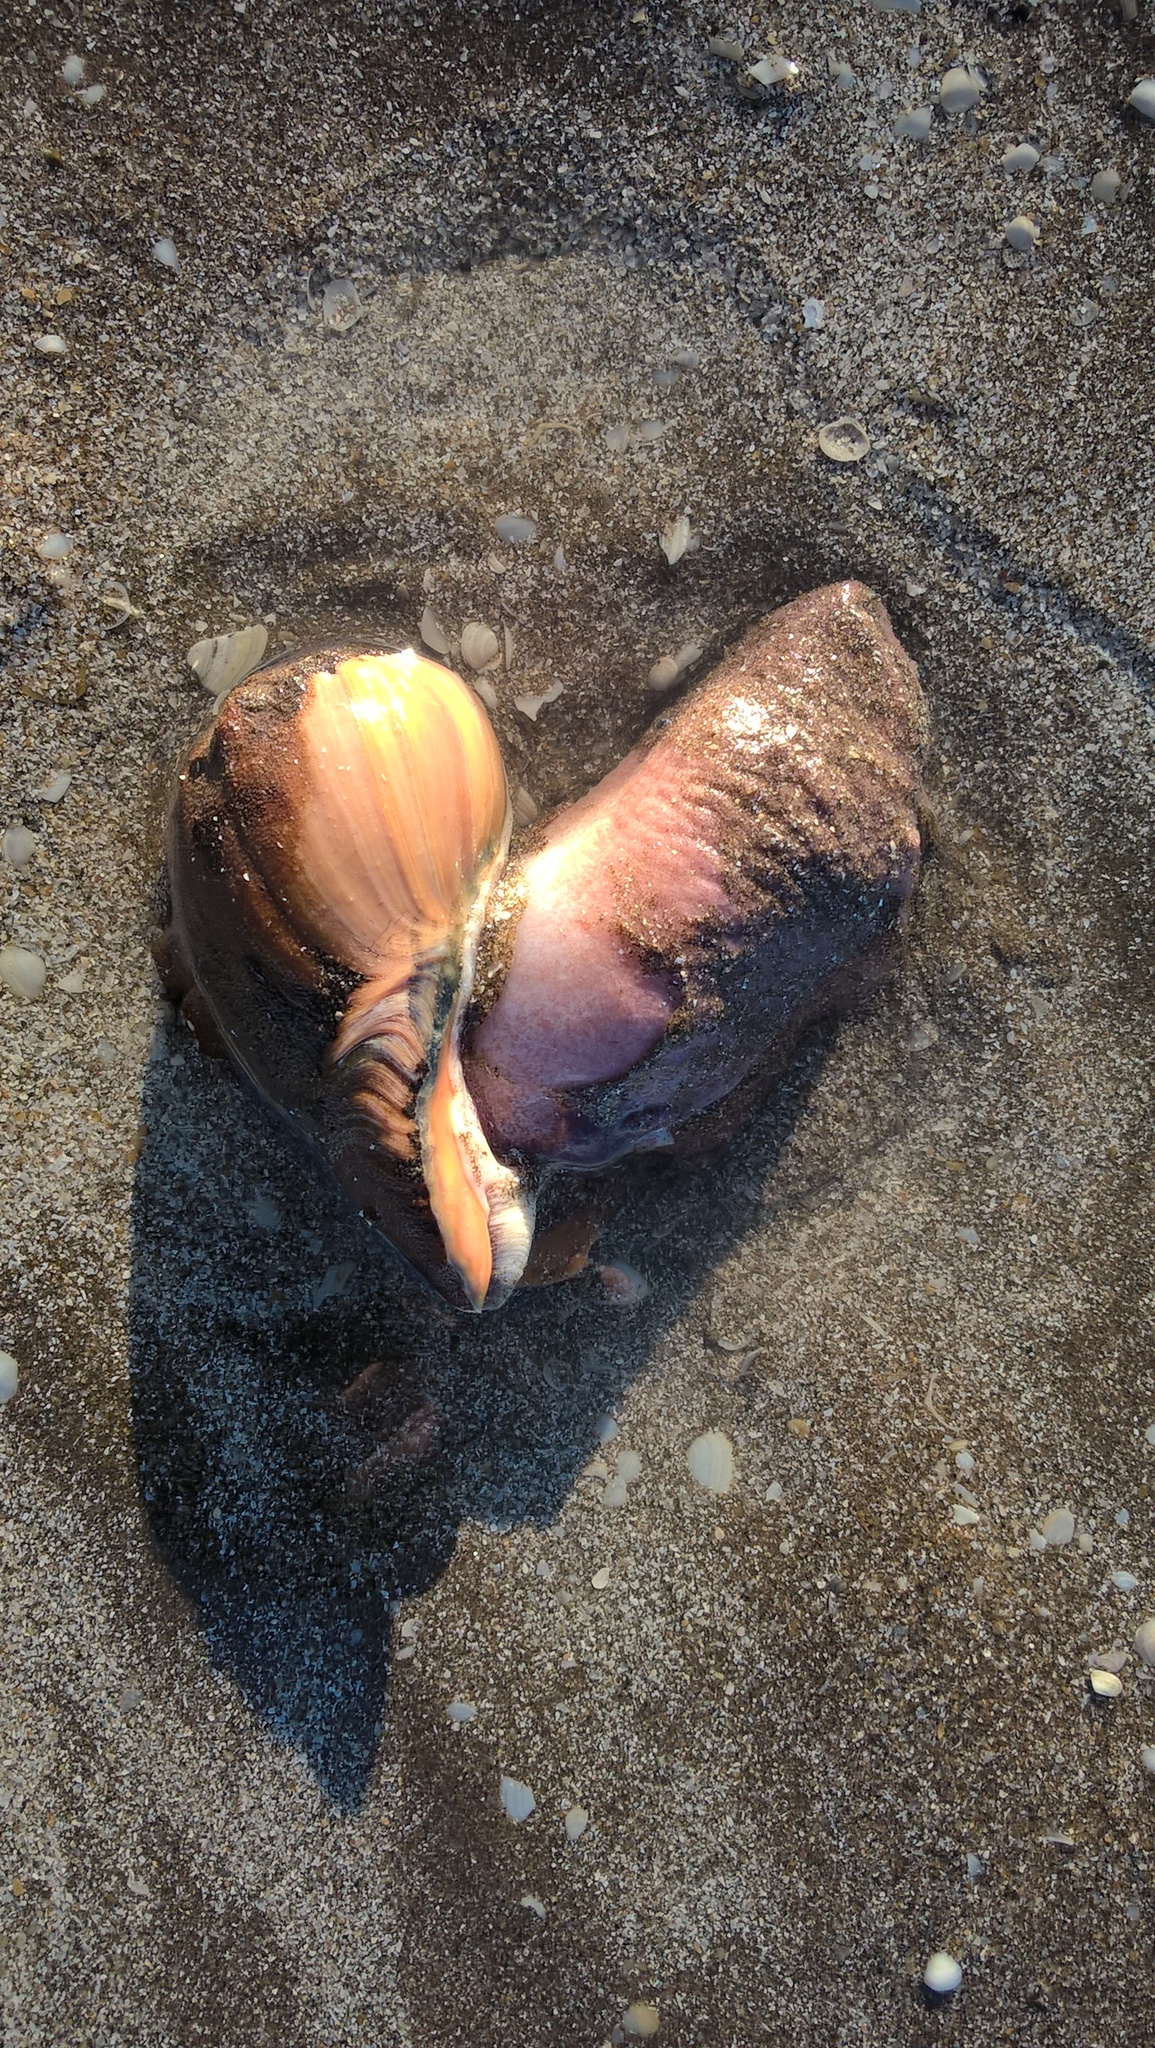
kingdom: Animalia
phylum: Mollusca
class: Gastropoda
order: Neogastropoda
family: Volutidae
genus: Pachycymbiola
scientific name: Pachycymbiola brasiliana
